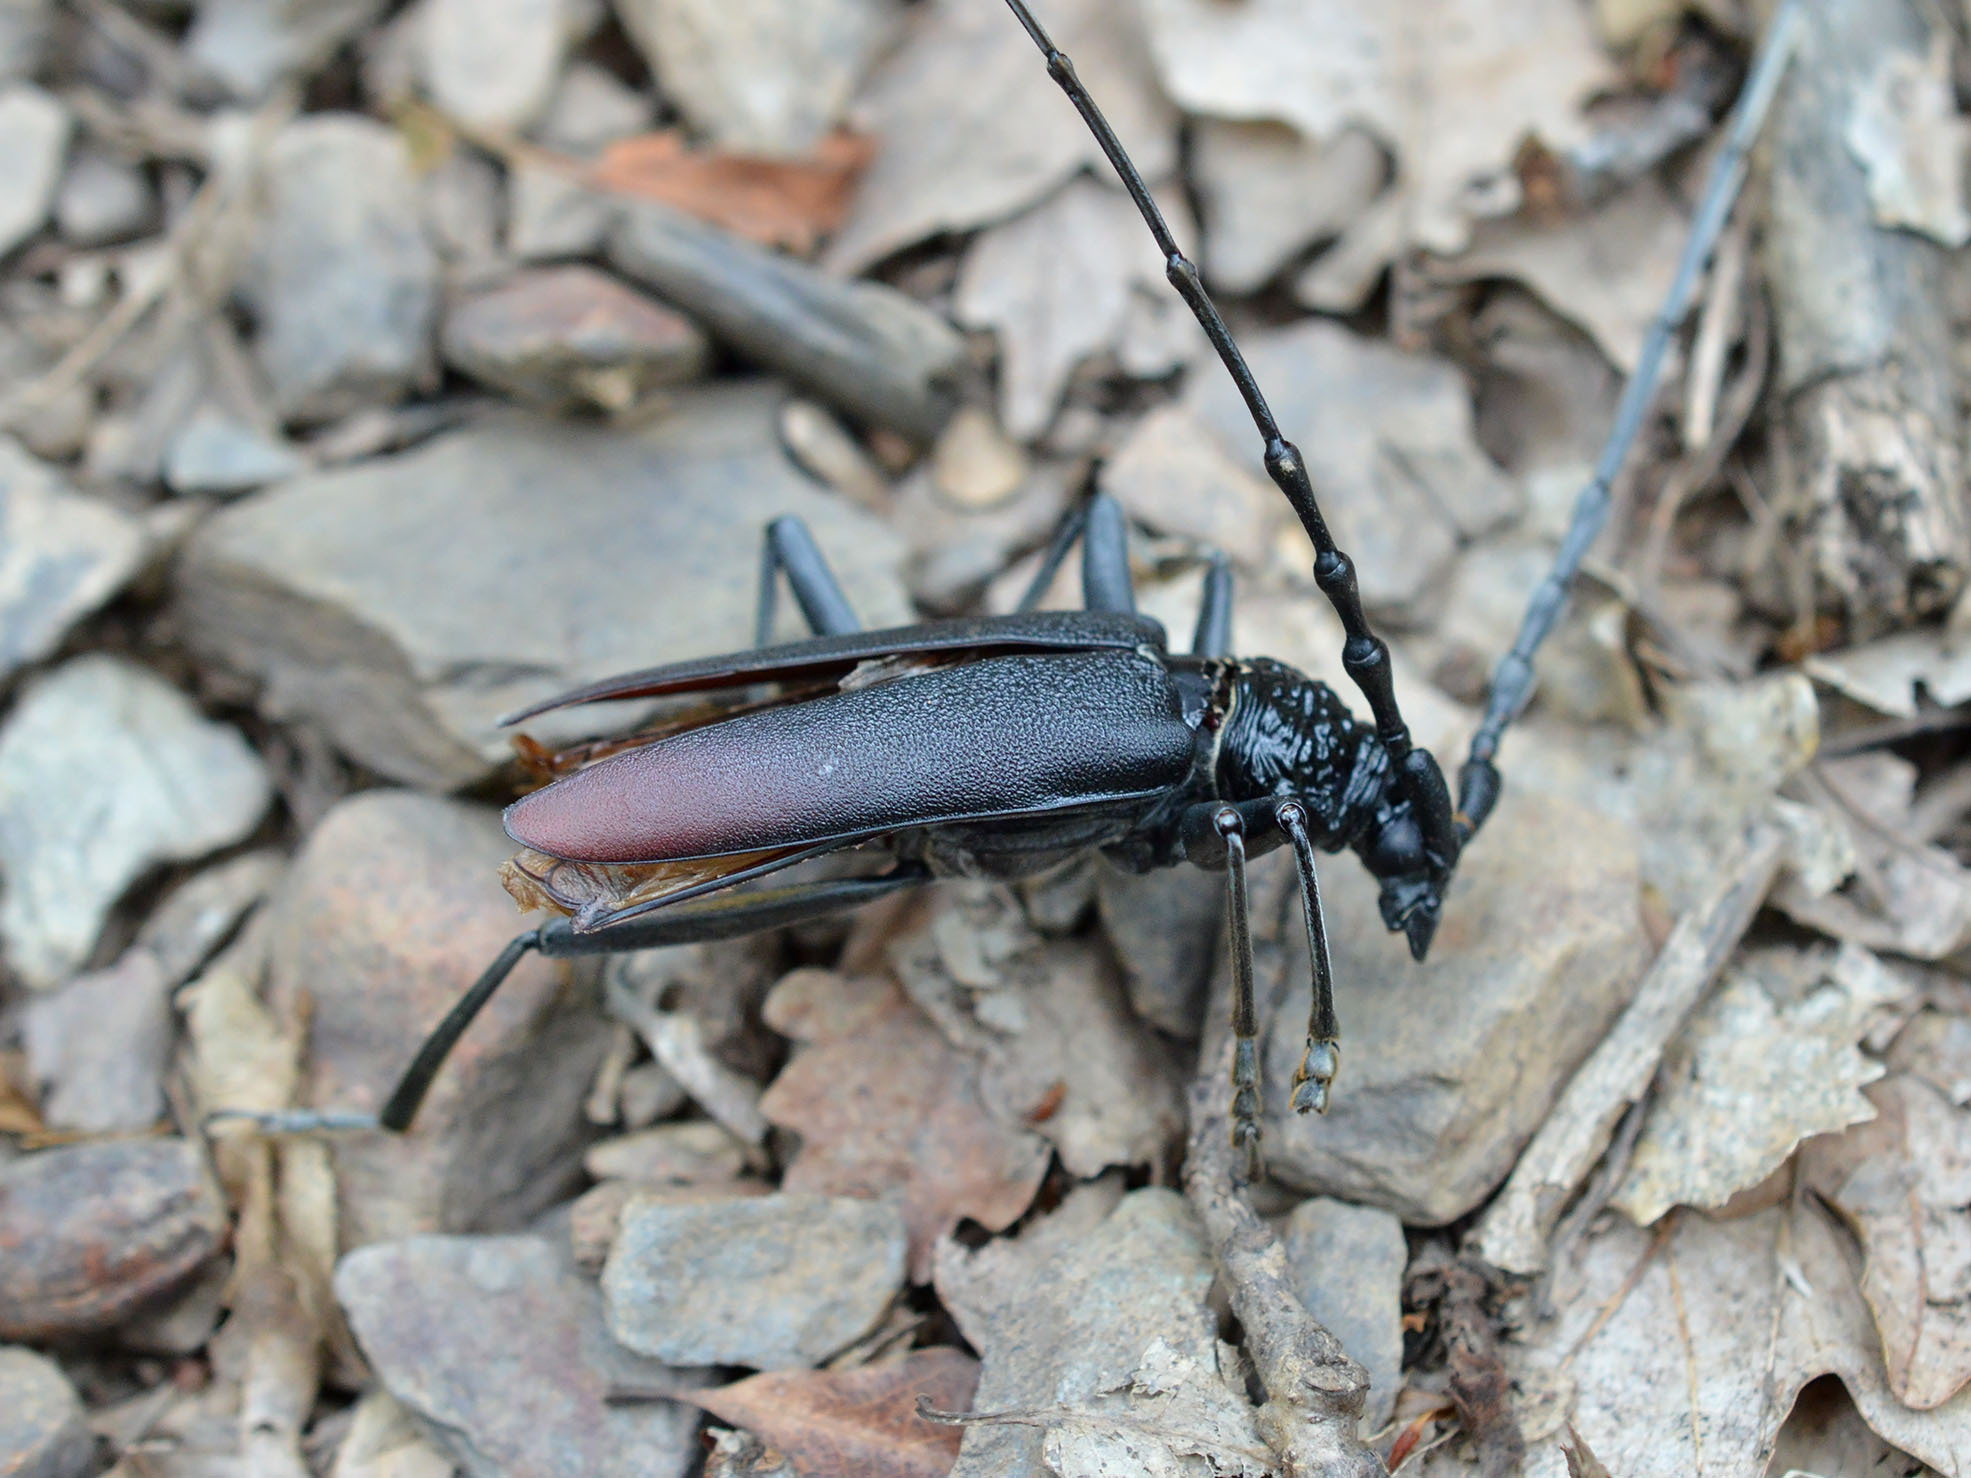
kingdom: Animalia
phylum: Arthropoda
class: Insecta
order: Coleoptera
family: Cerambycidae
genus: Cerambyx
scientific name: Cerambyx cerdo
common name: Cerambyx longicorn
